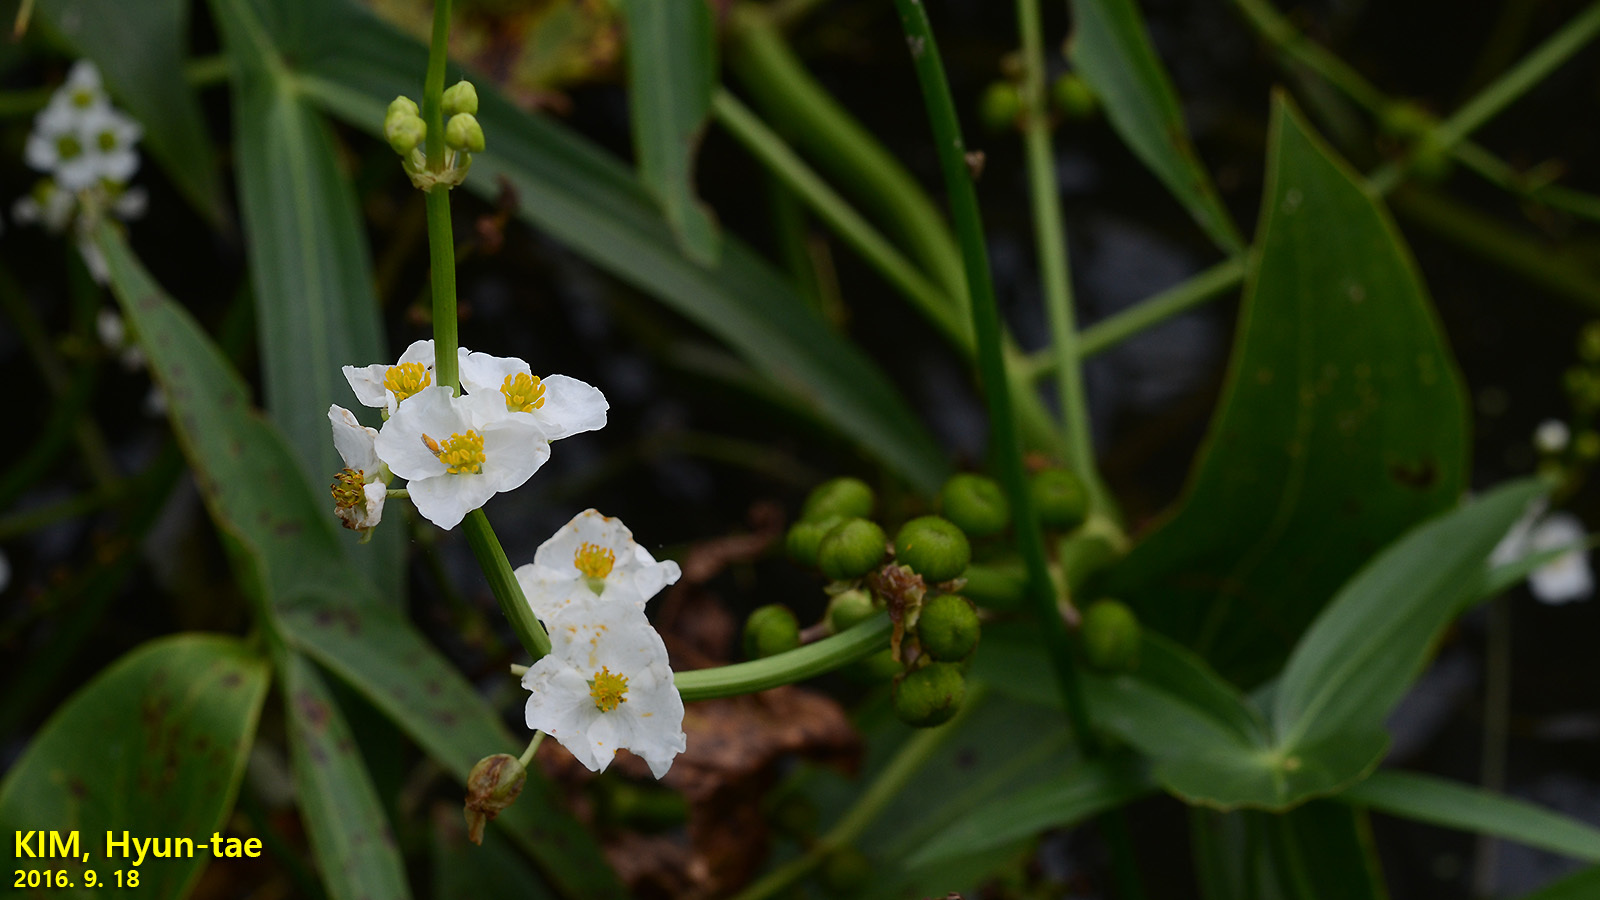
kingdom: Plantae
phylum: Tracheophyta
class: Liliopsida
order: Alismatales
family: Alismataceae
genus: Sagittaria
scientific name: Sagittaria trifolia
